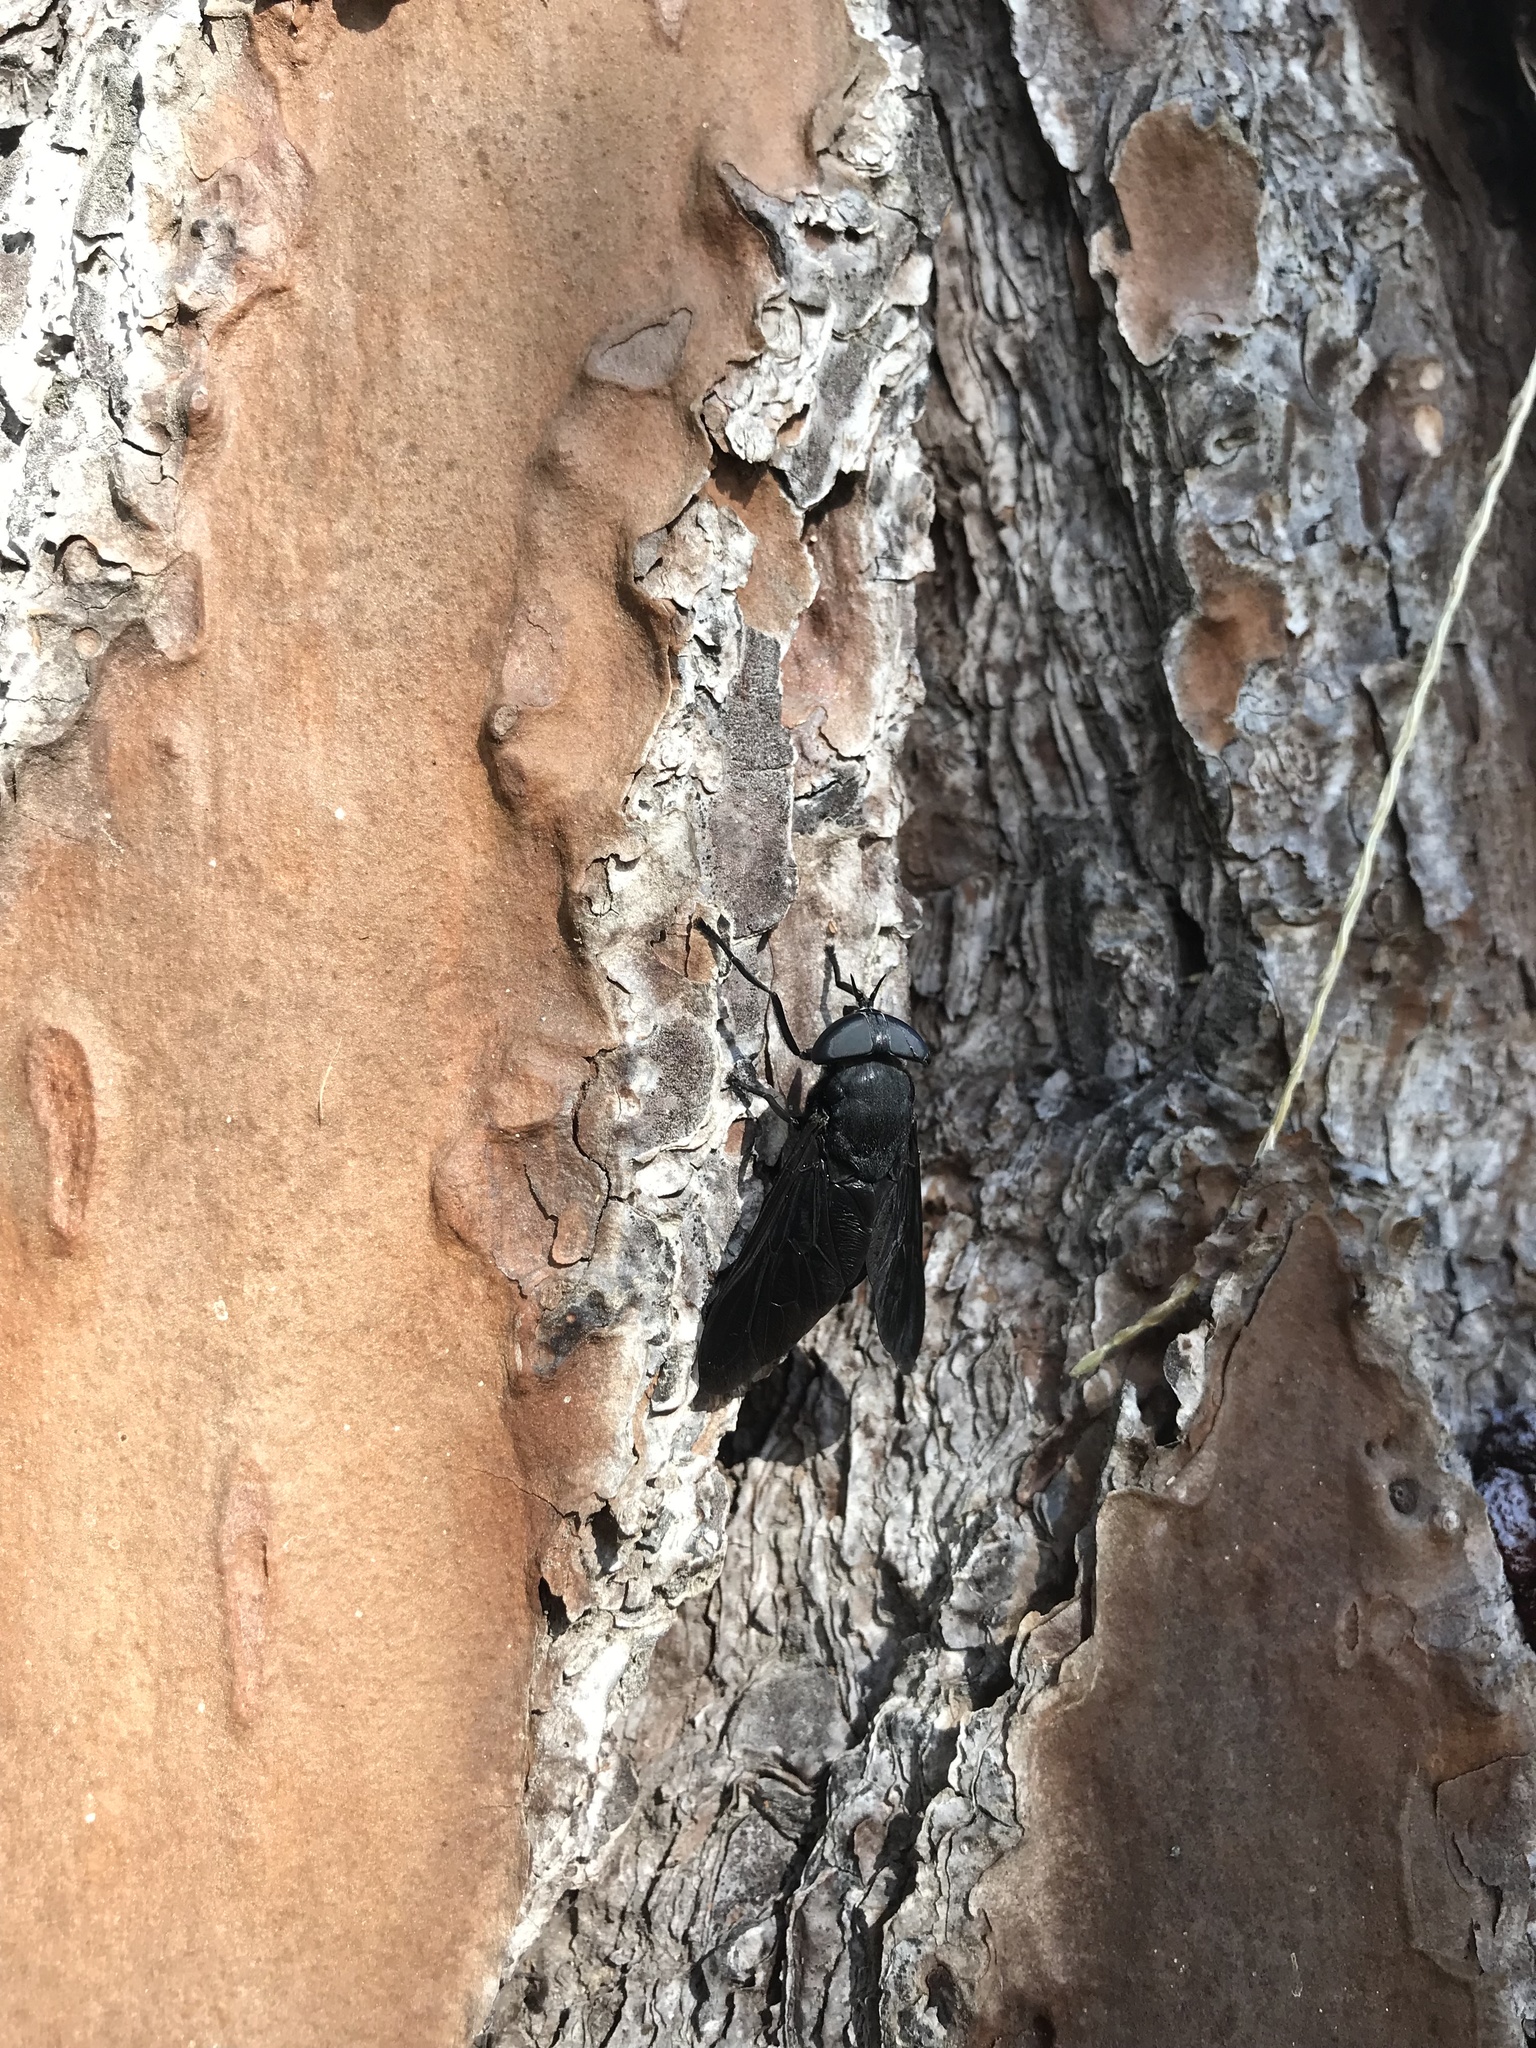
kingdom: Animalia
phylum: Arthropoda
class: Insecta
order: Diptera
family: Tabanidae
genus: Tabanus
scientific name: Tabanus atratus
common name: Black horse fly
